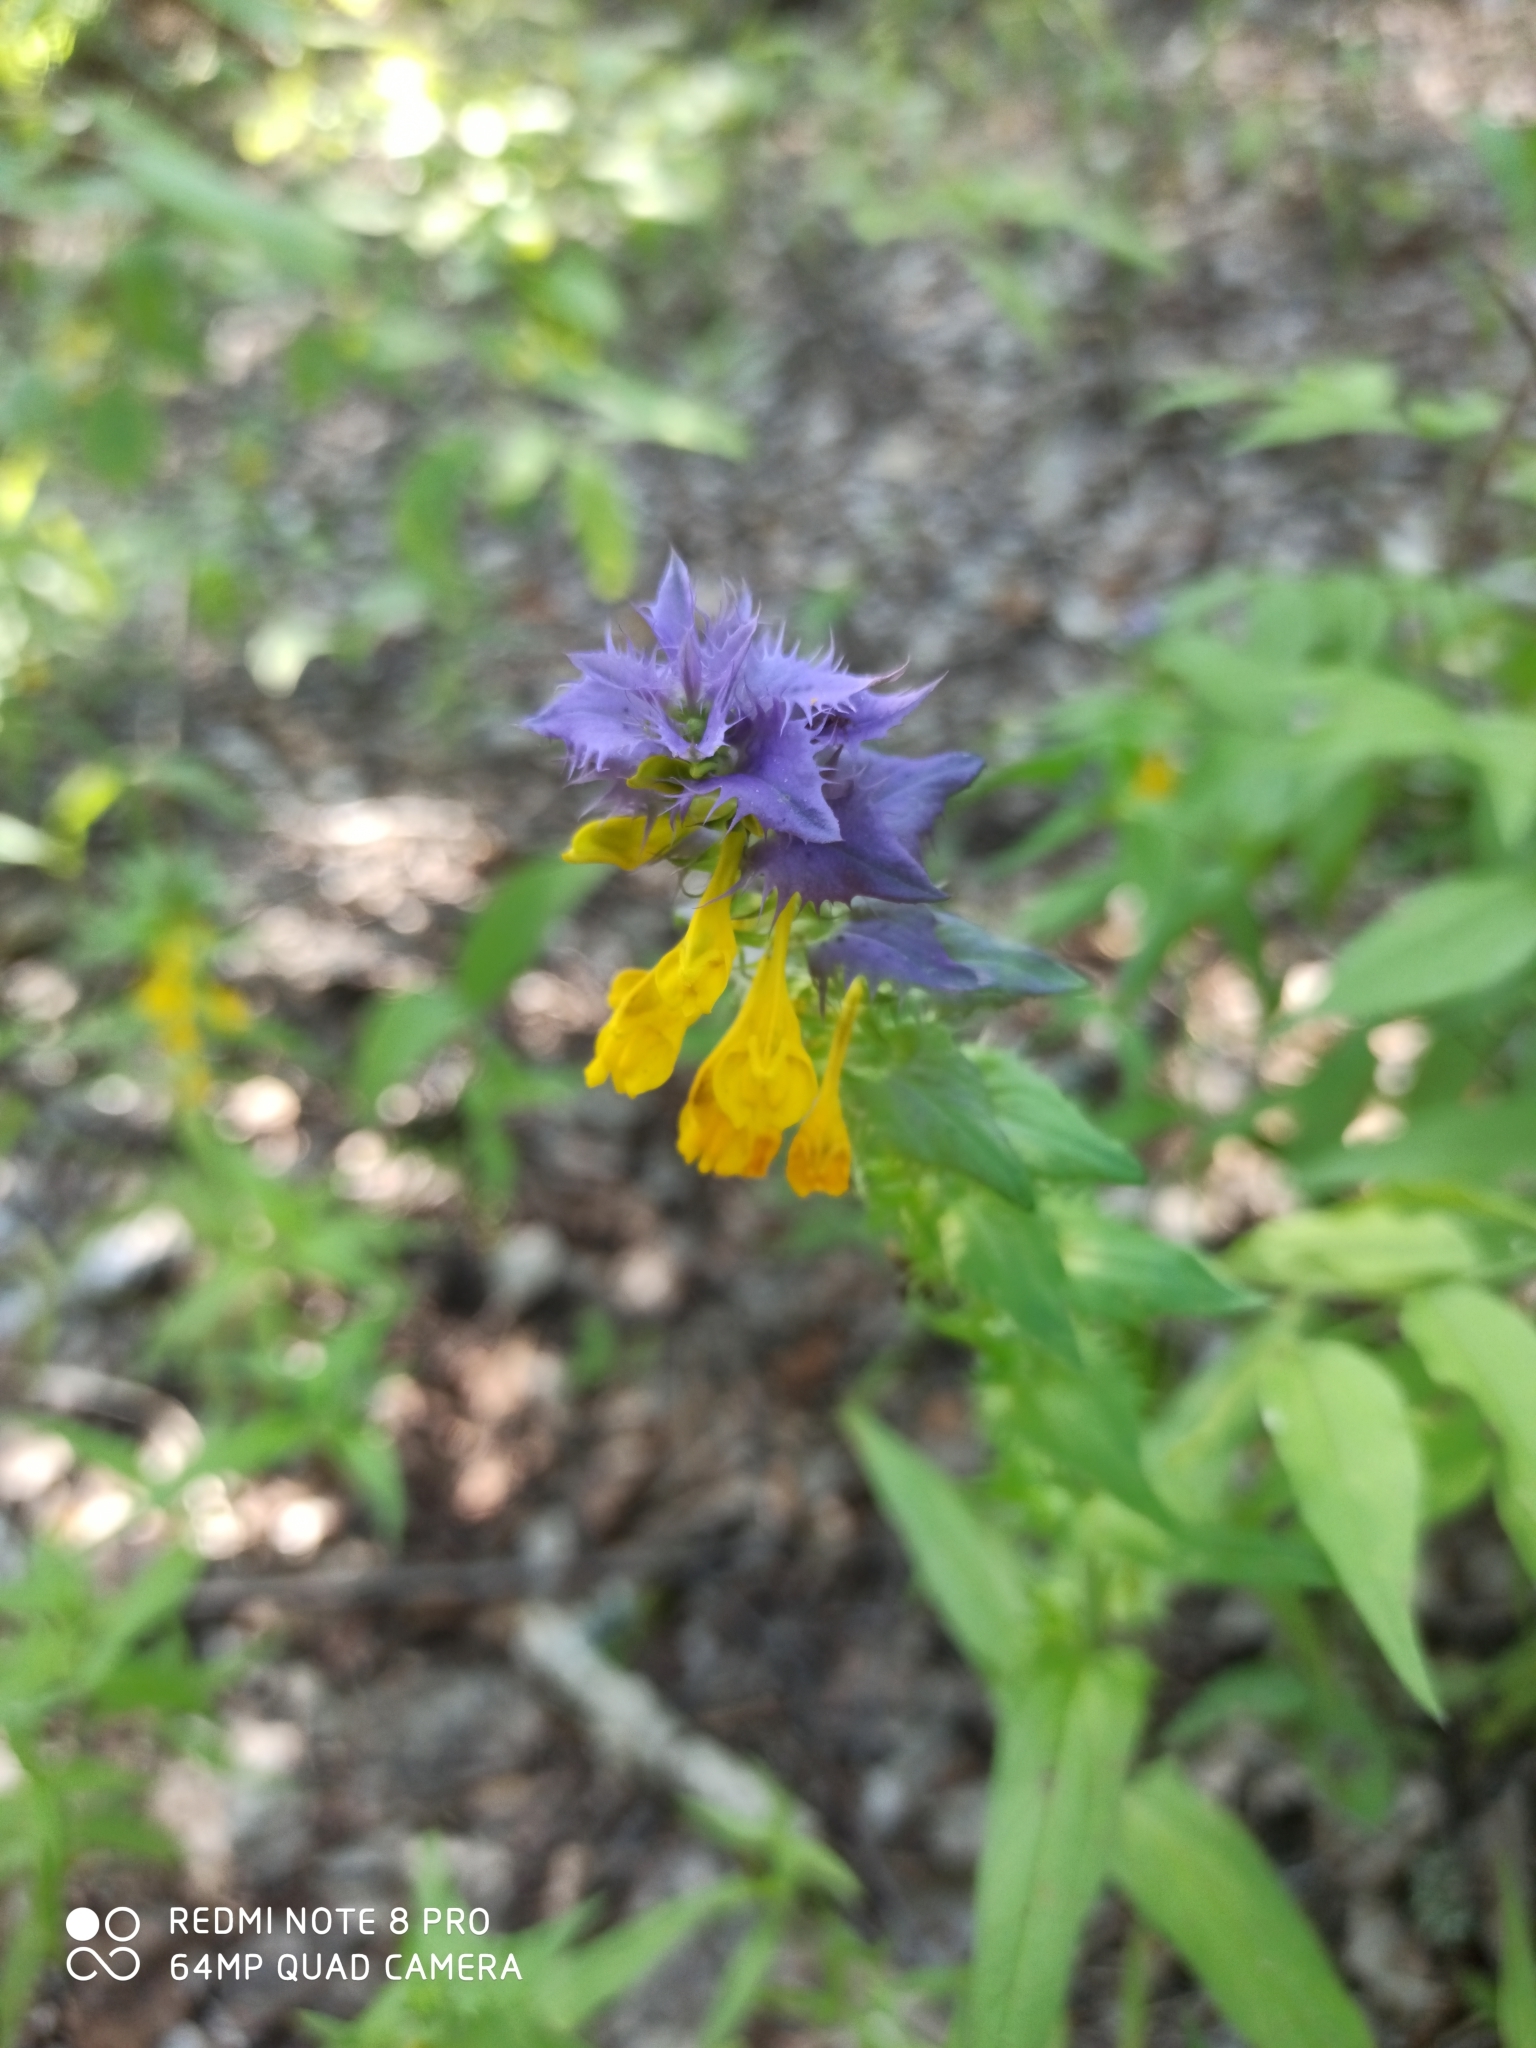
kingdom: Plantae
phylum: Tracheophyta
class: Magnoliopsida
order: Lamiales
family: Orobanchaceae
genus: Melampyrum
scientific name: Melampyrum nemorosum
